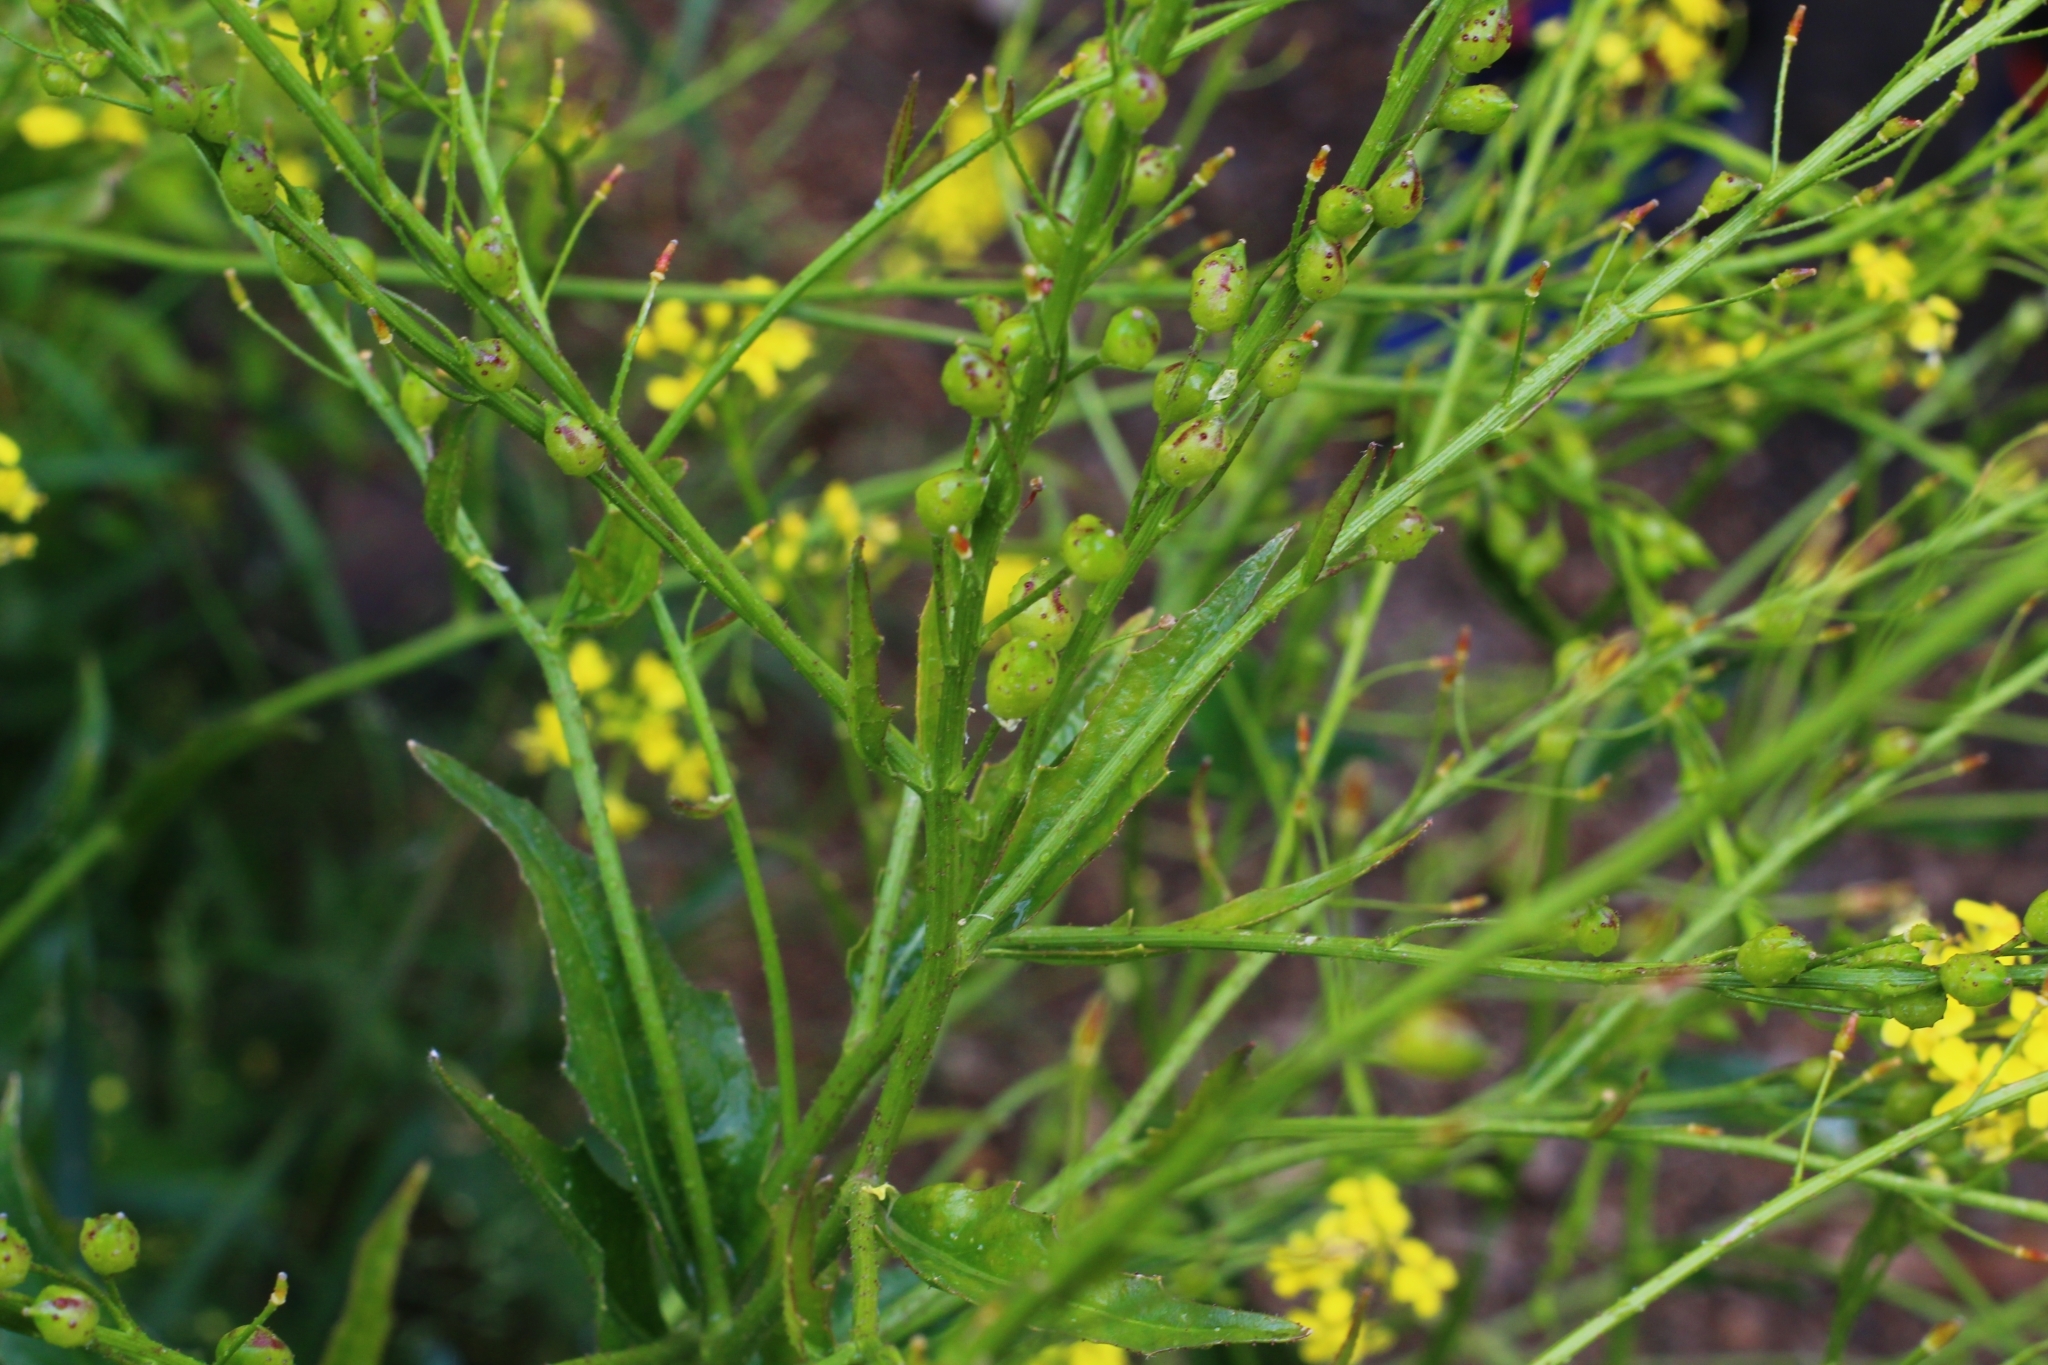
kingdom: Plantae
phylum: Tracheophyta
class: Magnoliopsida
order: Brassicales
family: Brassicaceae
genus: Bunias
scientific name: Bunias orientalis
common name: Warty-cabbage
